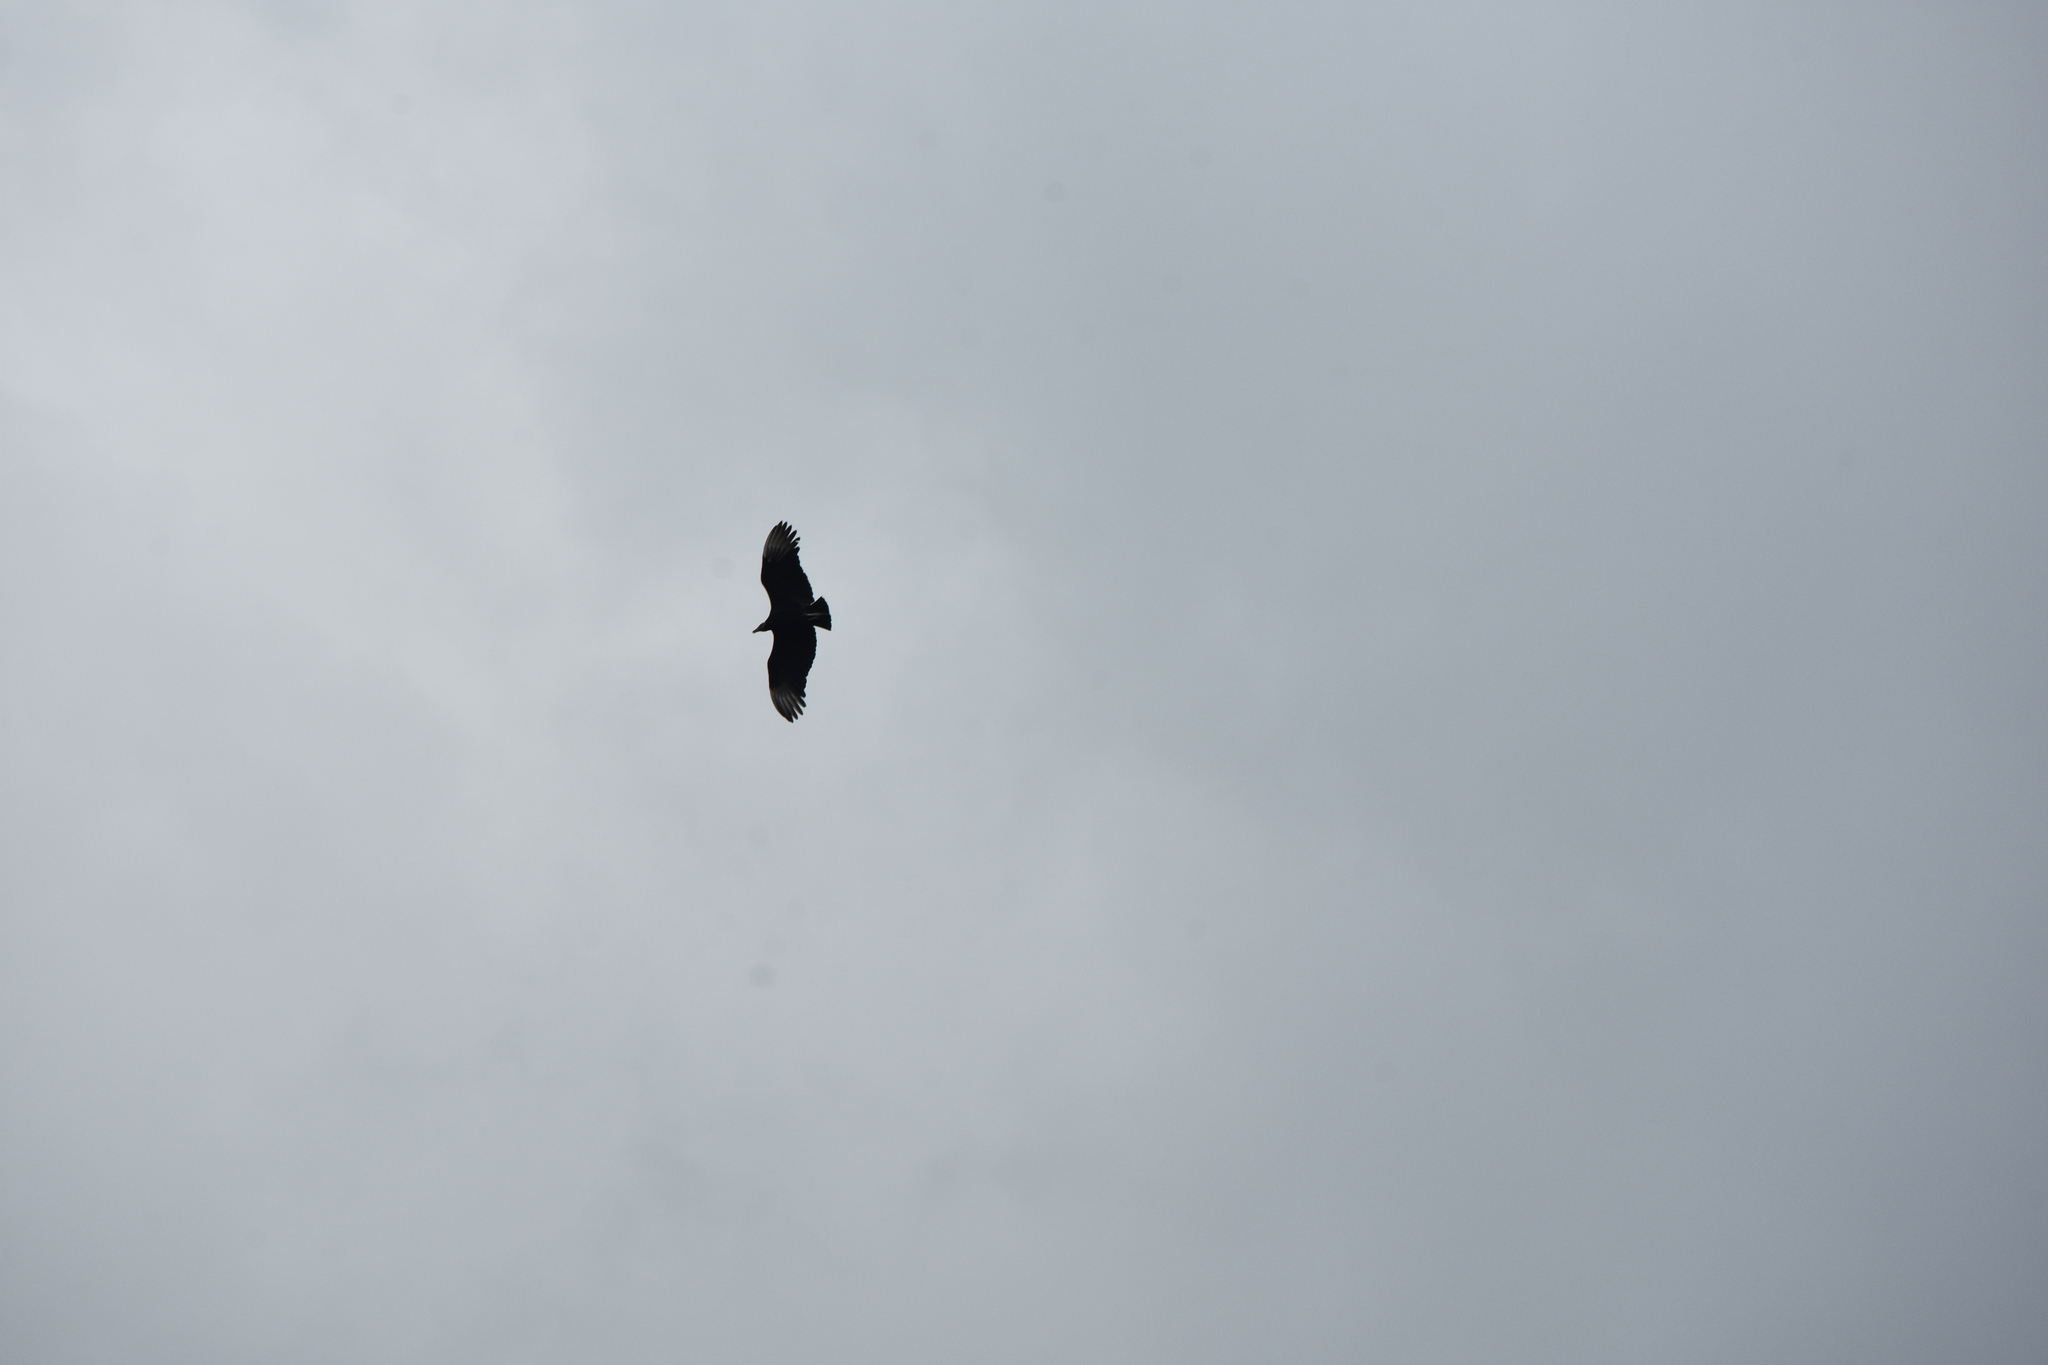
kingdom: Animalia
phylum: Chordata
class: Aves
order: Accipitriformes
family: Cathartidae
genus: Coragyps
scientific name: Coragyps atratus
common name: Black vulture
